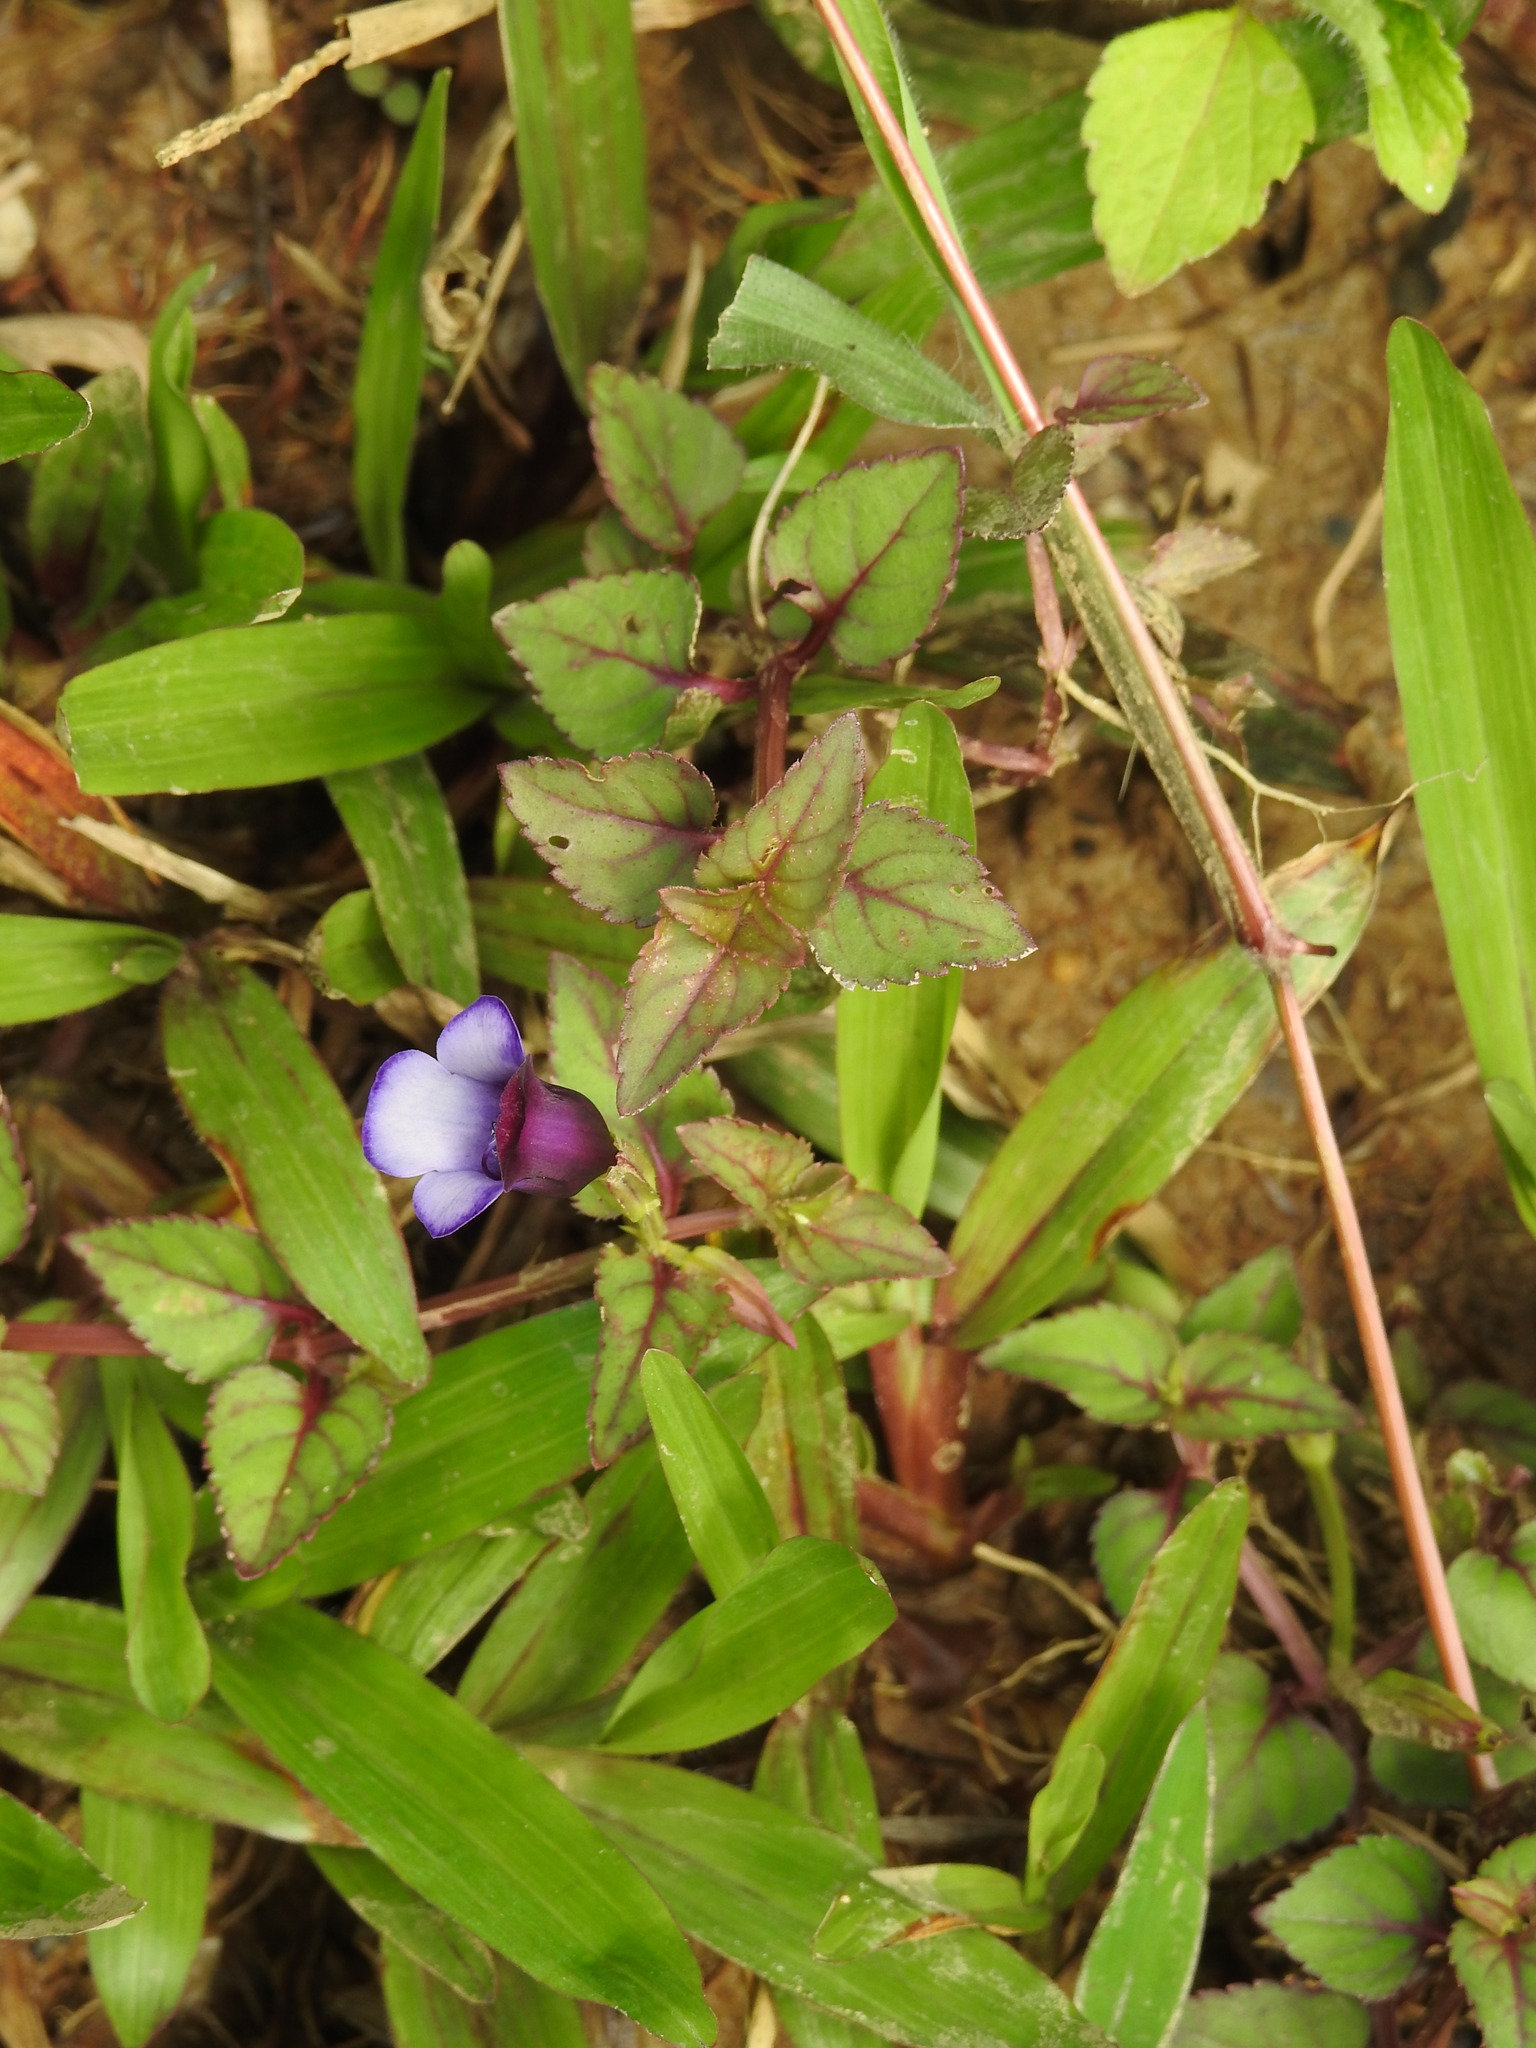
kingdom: Plantae
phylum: Tracheophyta
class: Magnoliopsida
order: Lamiales
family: Linderniaceae
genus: Torenia
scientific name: Torenia bicolor
